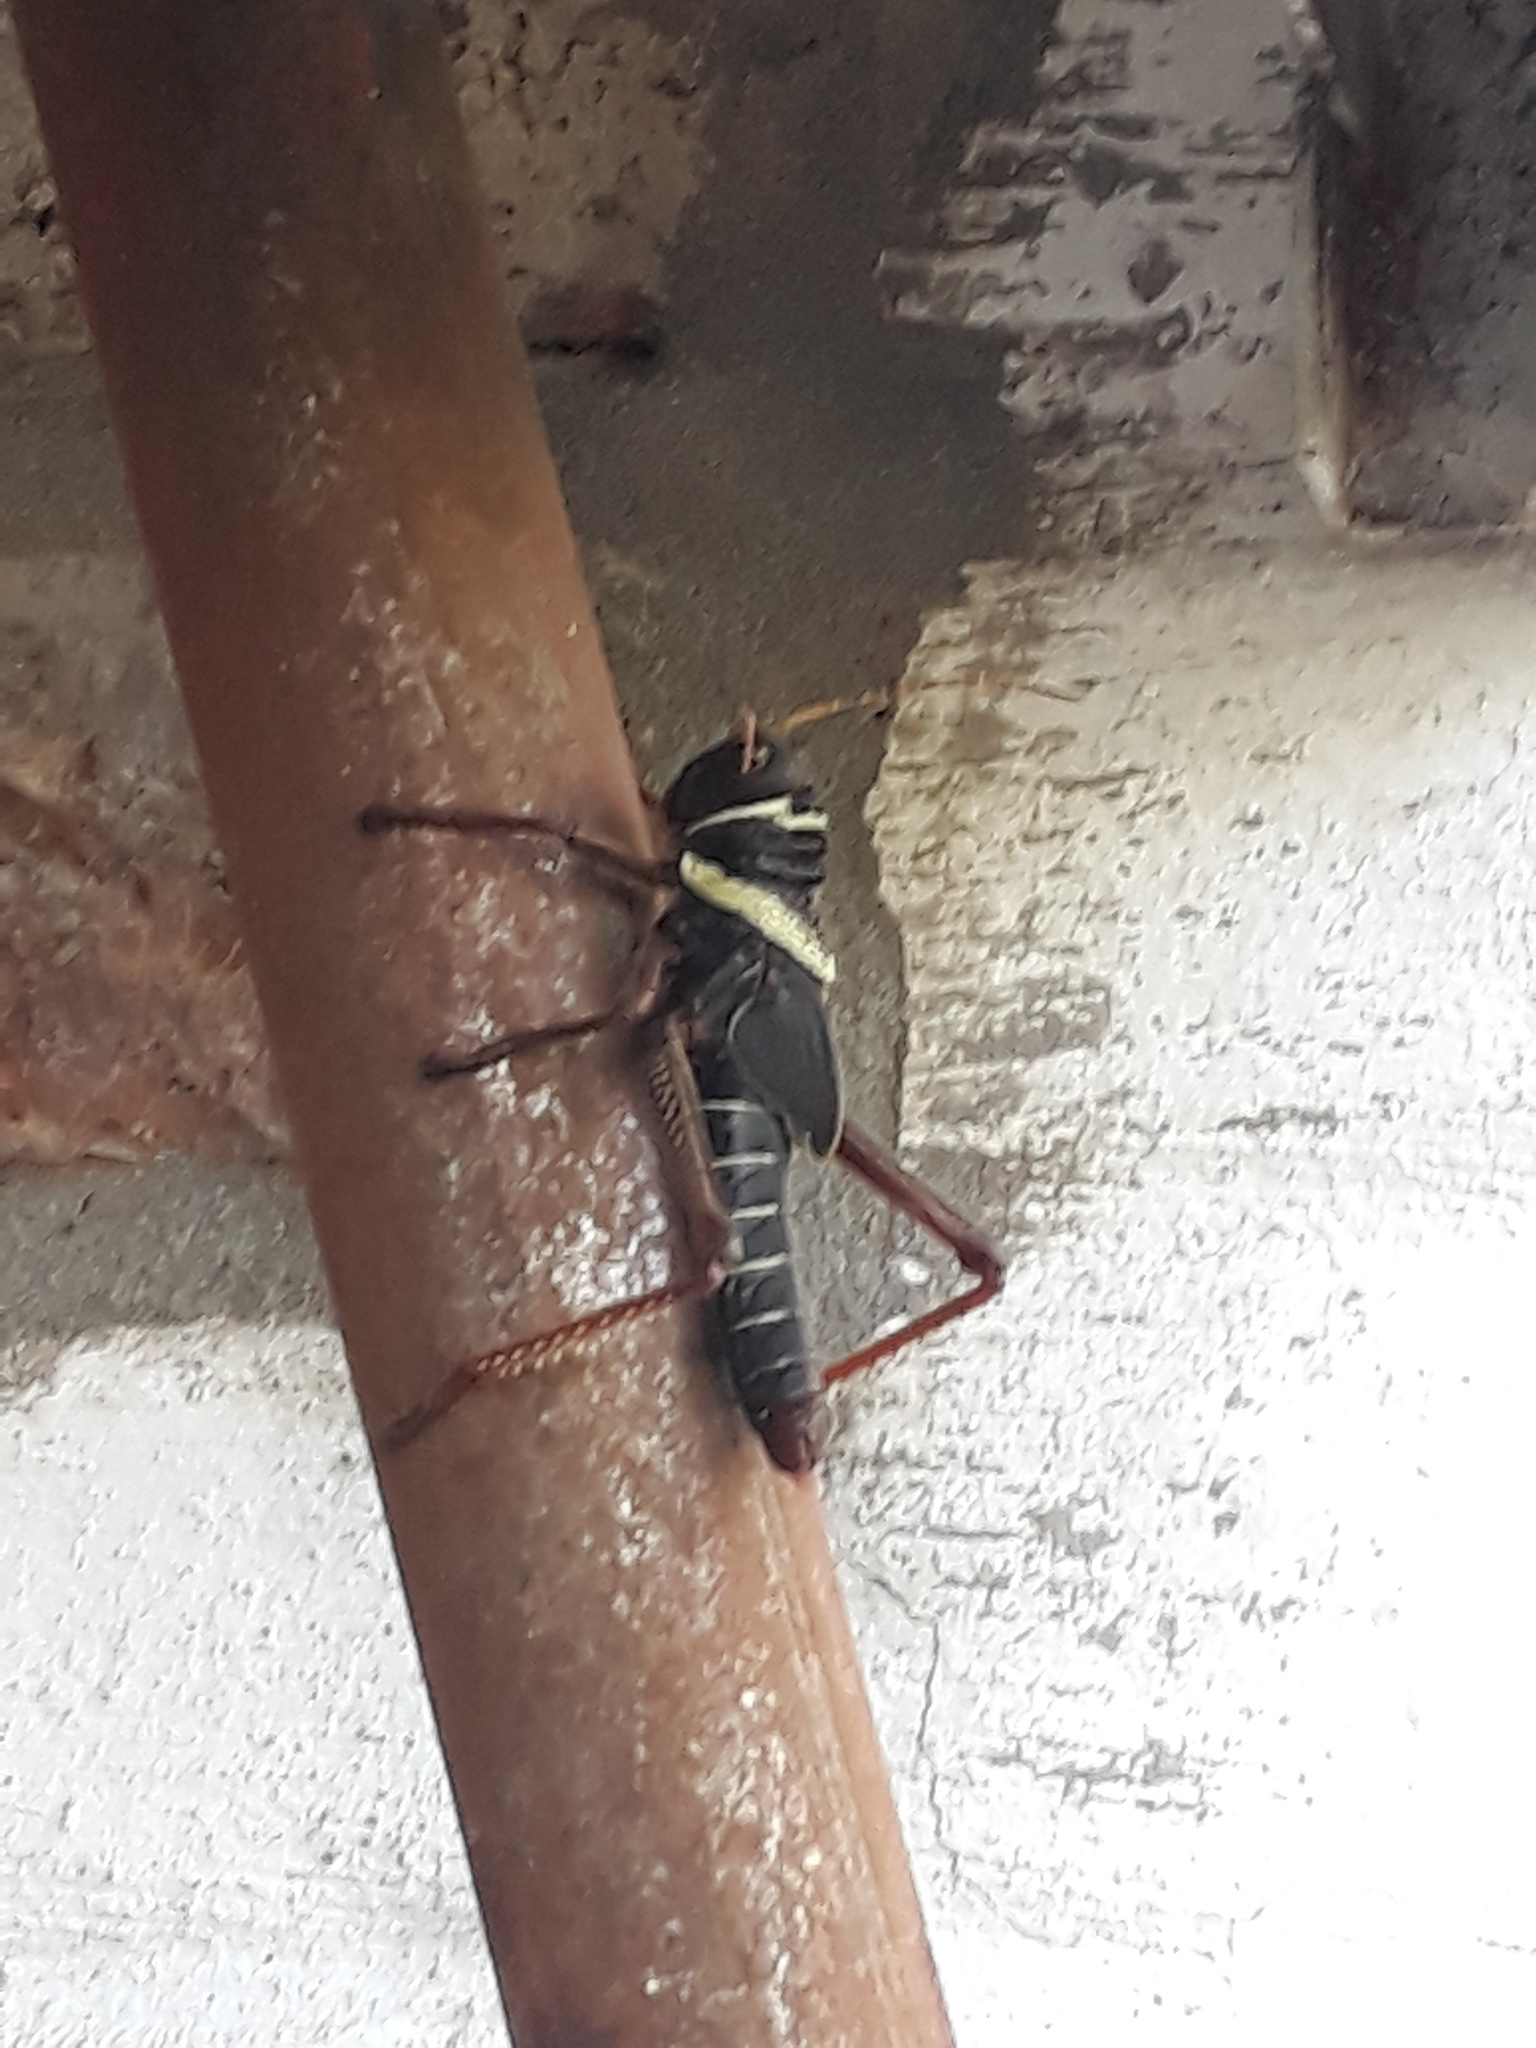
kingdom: Animalia
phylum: Arthropoda
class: Insecta
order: Orthoptera
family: Romaleidae
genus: Tropidacris
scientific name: Tropidacris collaris
